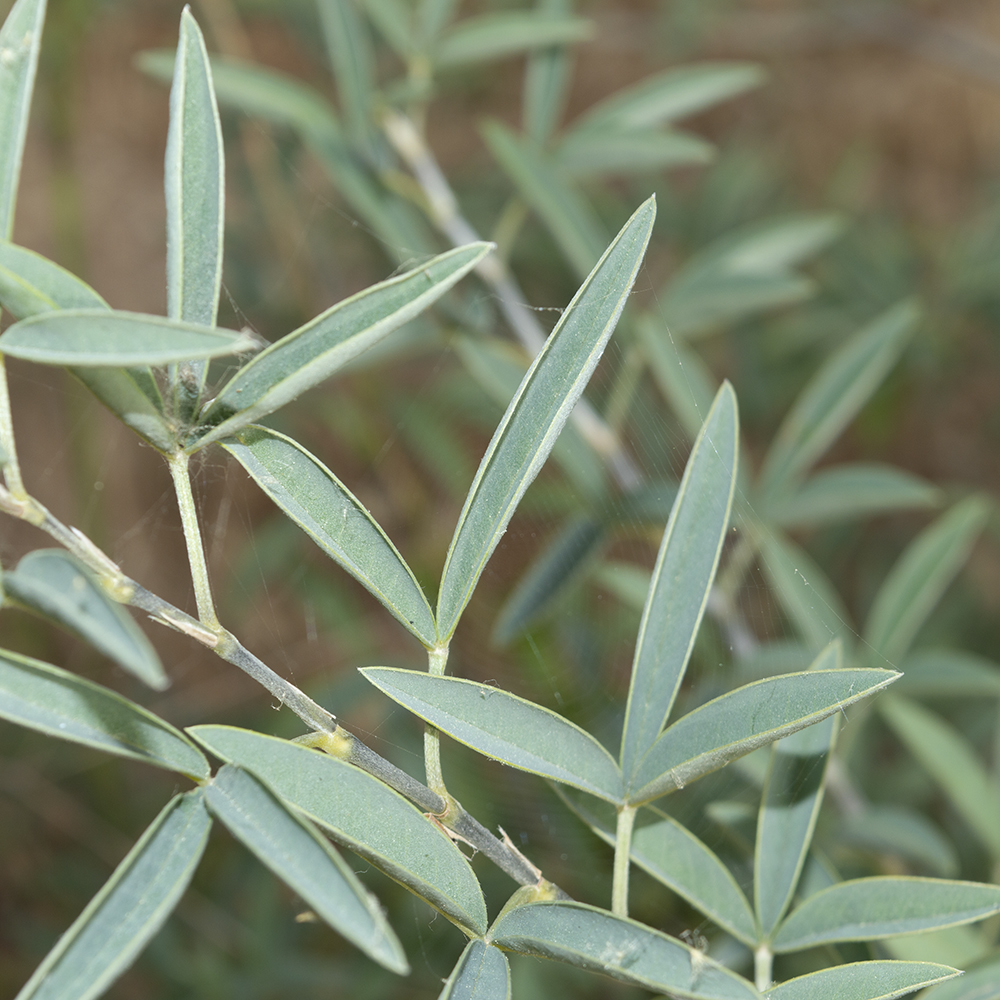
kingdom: Plantae
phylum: Tracheophyta
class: Magnoliopsida
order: Fabales
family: Fabaceae
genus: Anagyris
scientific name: Anagyris foetida
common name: Stinking bean trefoil
